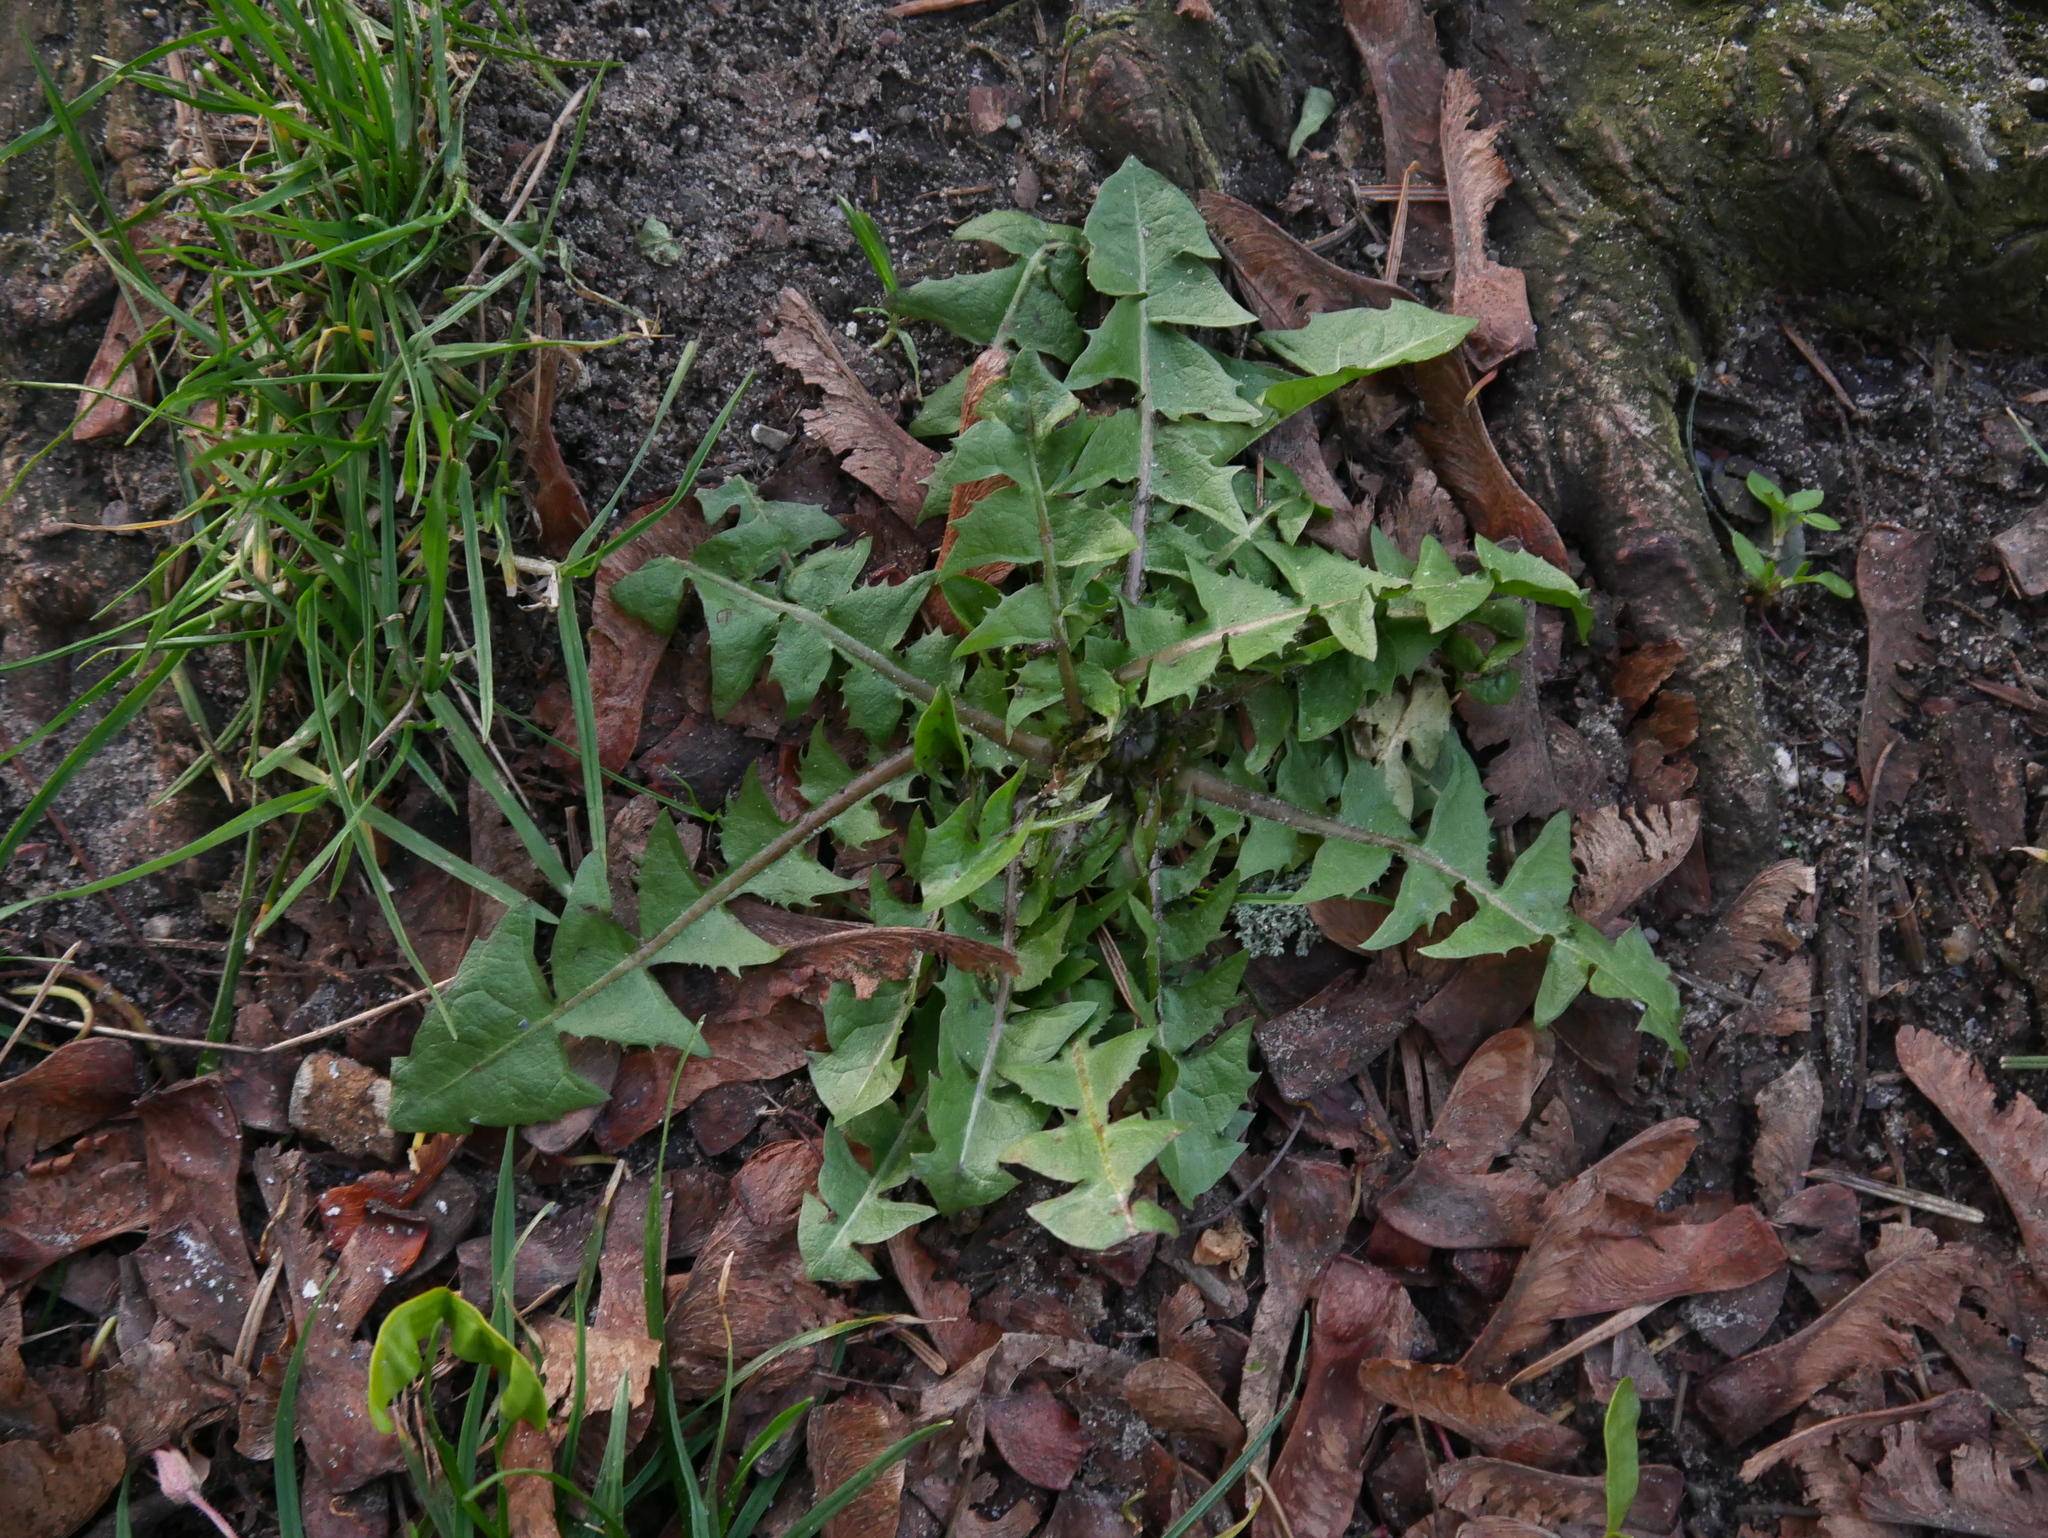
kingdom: Plantae
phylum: Tracheophyta
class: Magnoliopsida
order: Asterales
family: Asteraceae
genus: Taraxacum
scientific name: Taraxacum officinale
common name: Common dandelion
